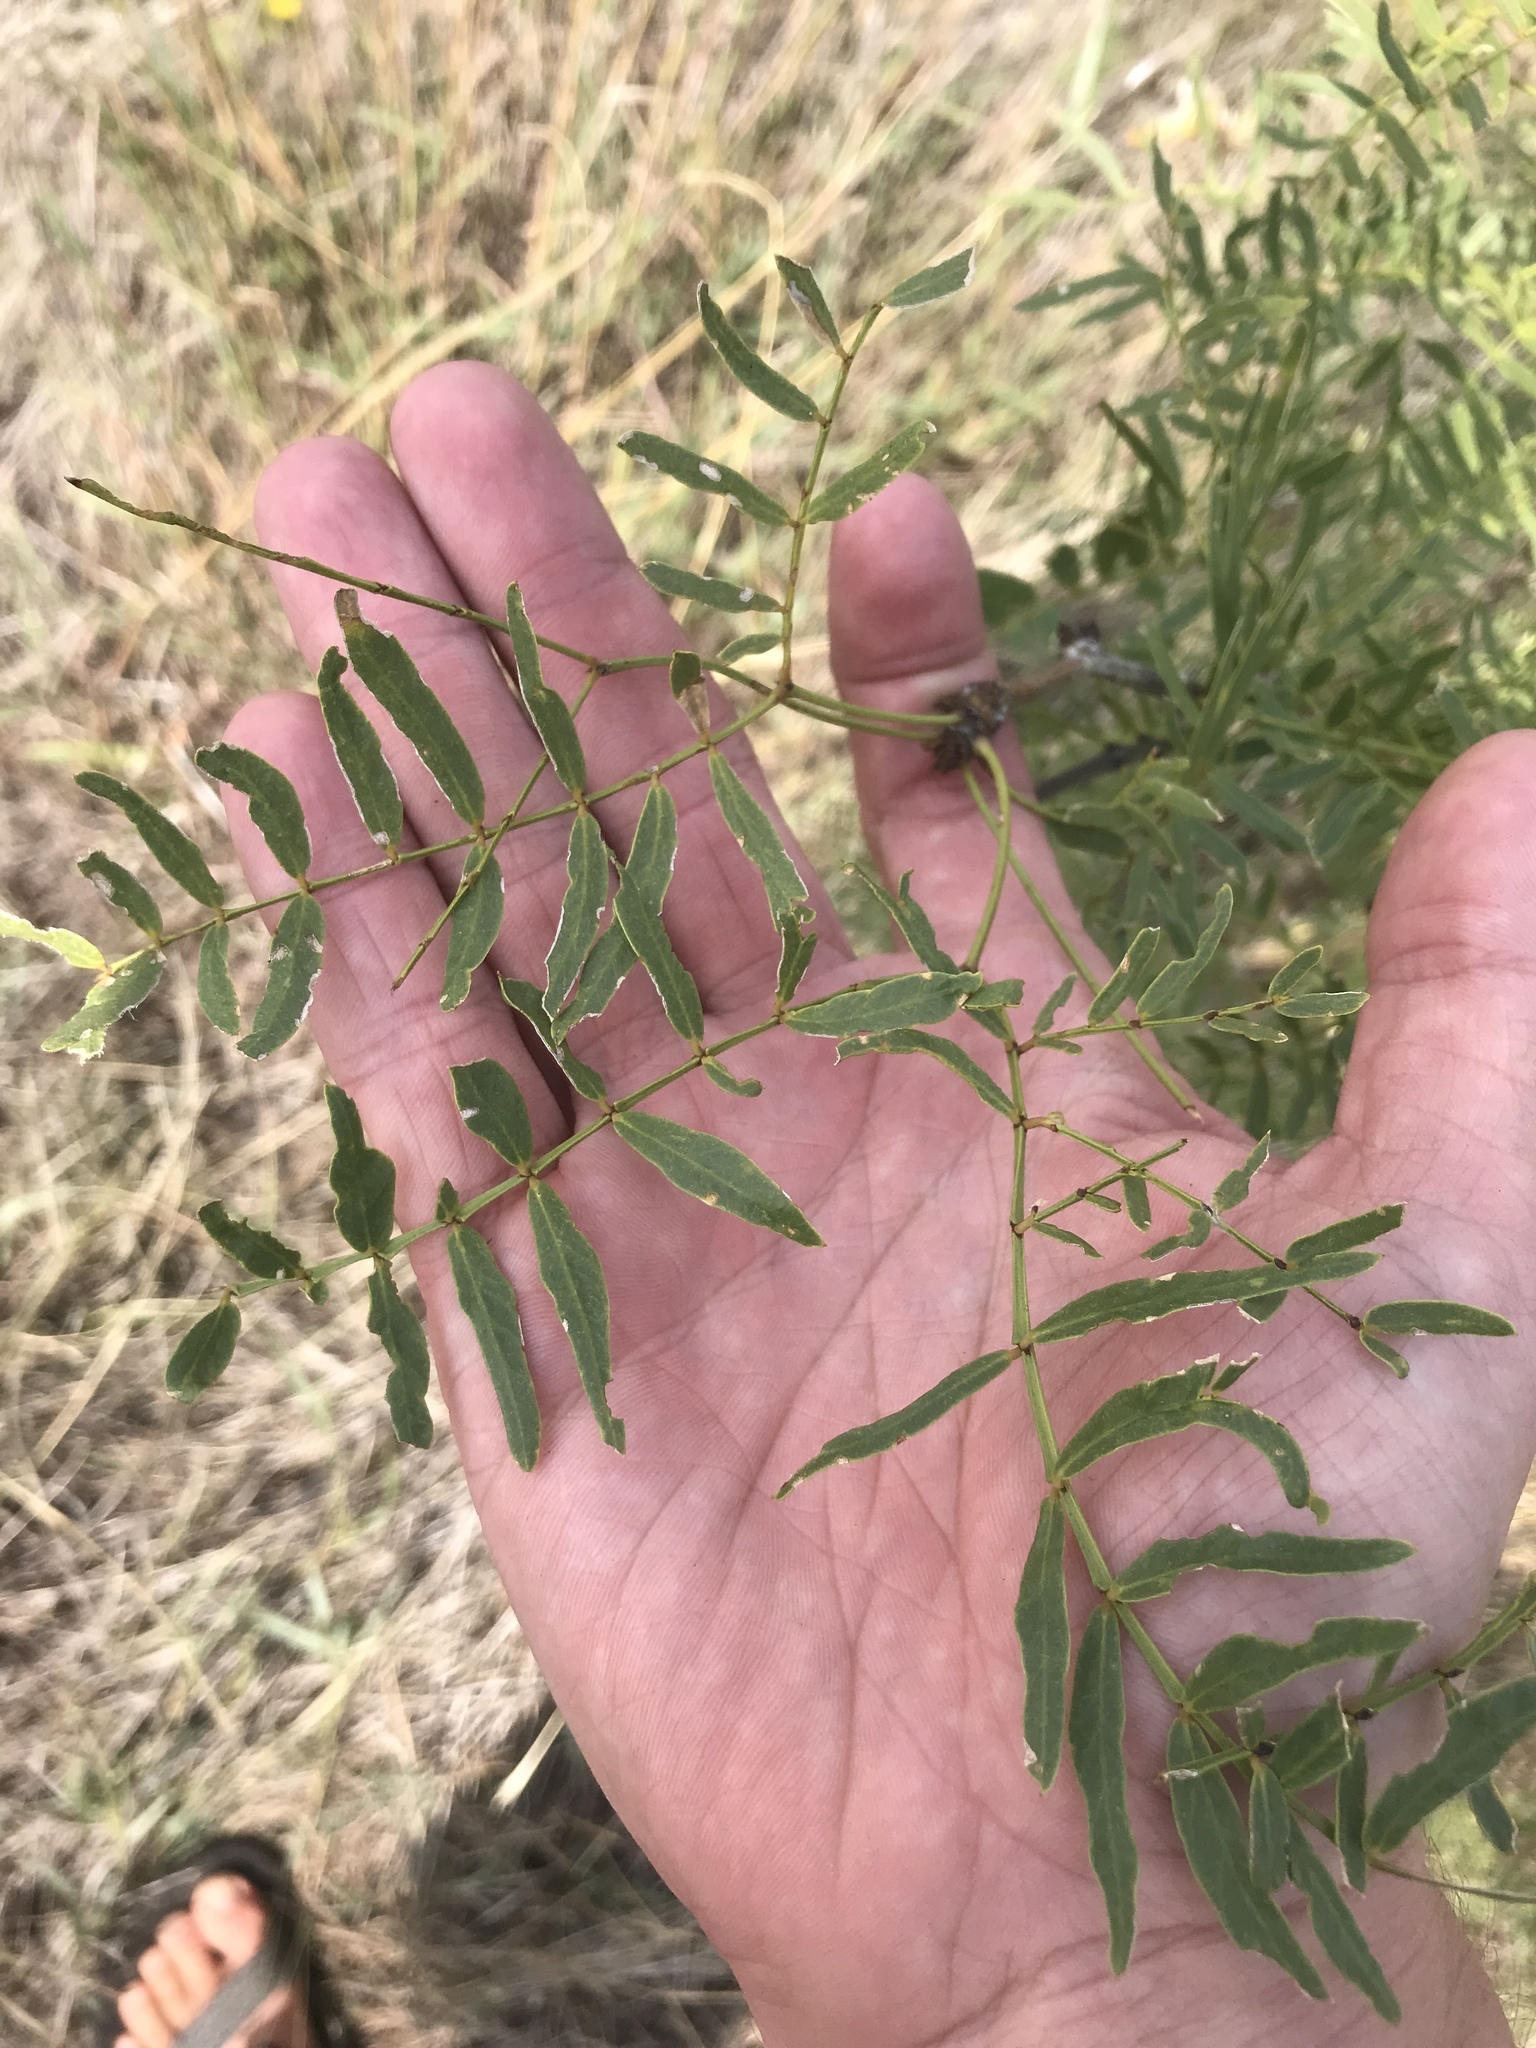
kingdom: Plantae
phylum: Tracheophyta
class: Magnoliopsida
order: Fabales
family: Fabaceae
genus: Prosopis
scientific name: Prosopis glandulosa
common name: Honey mesquite
